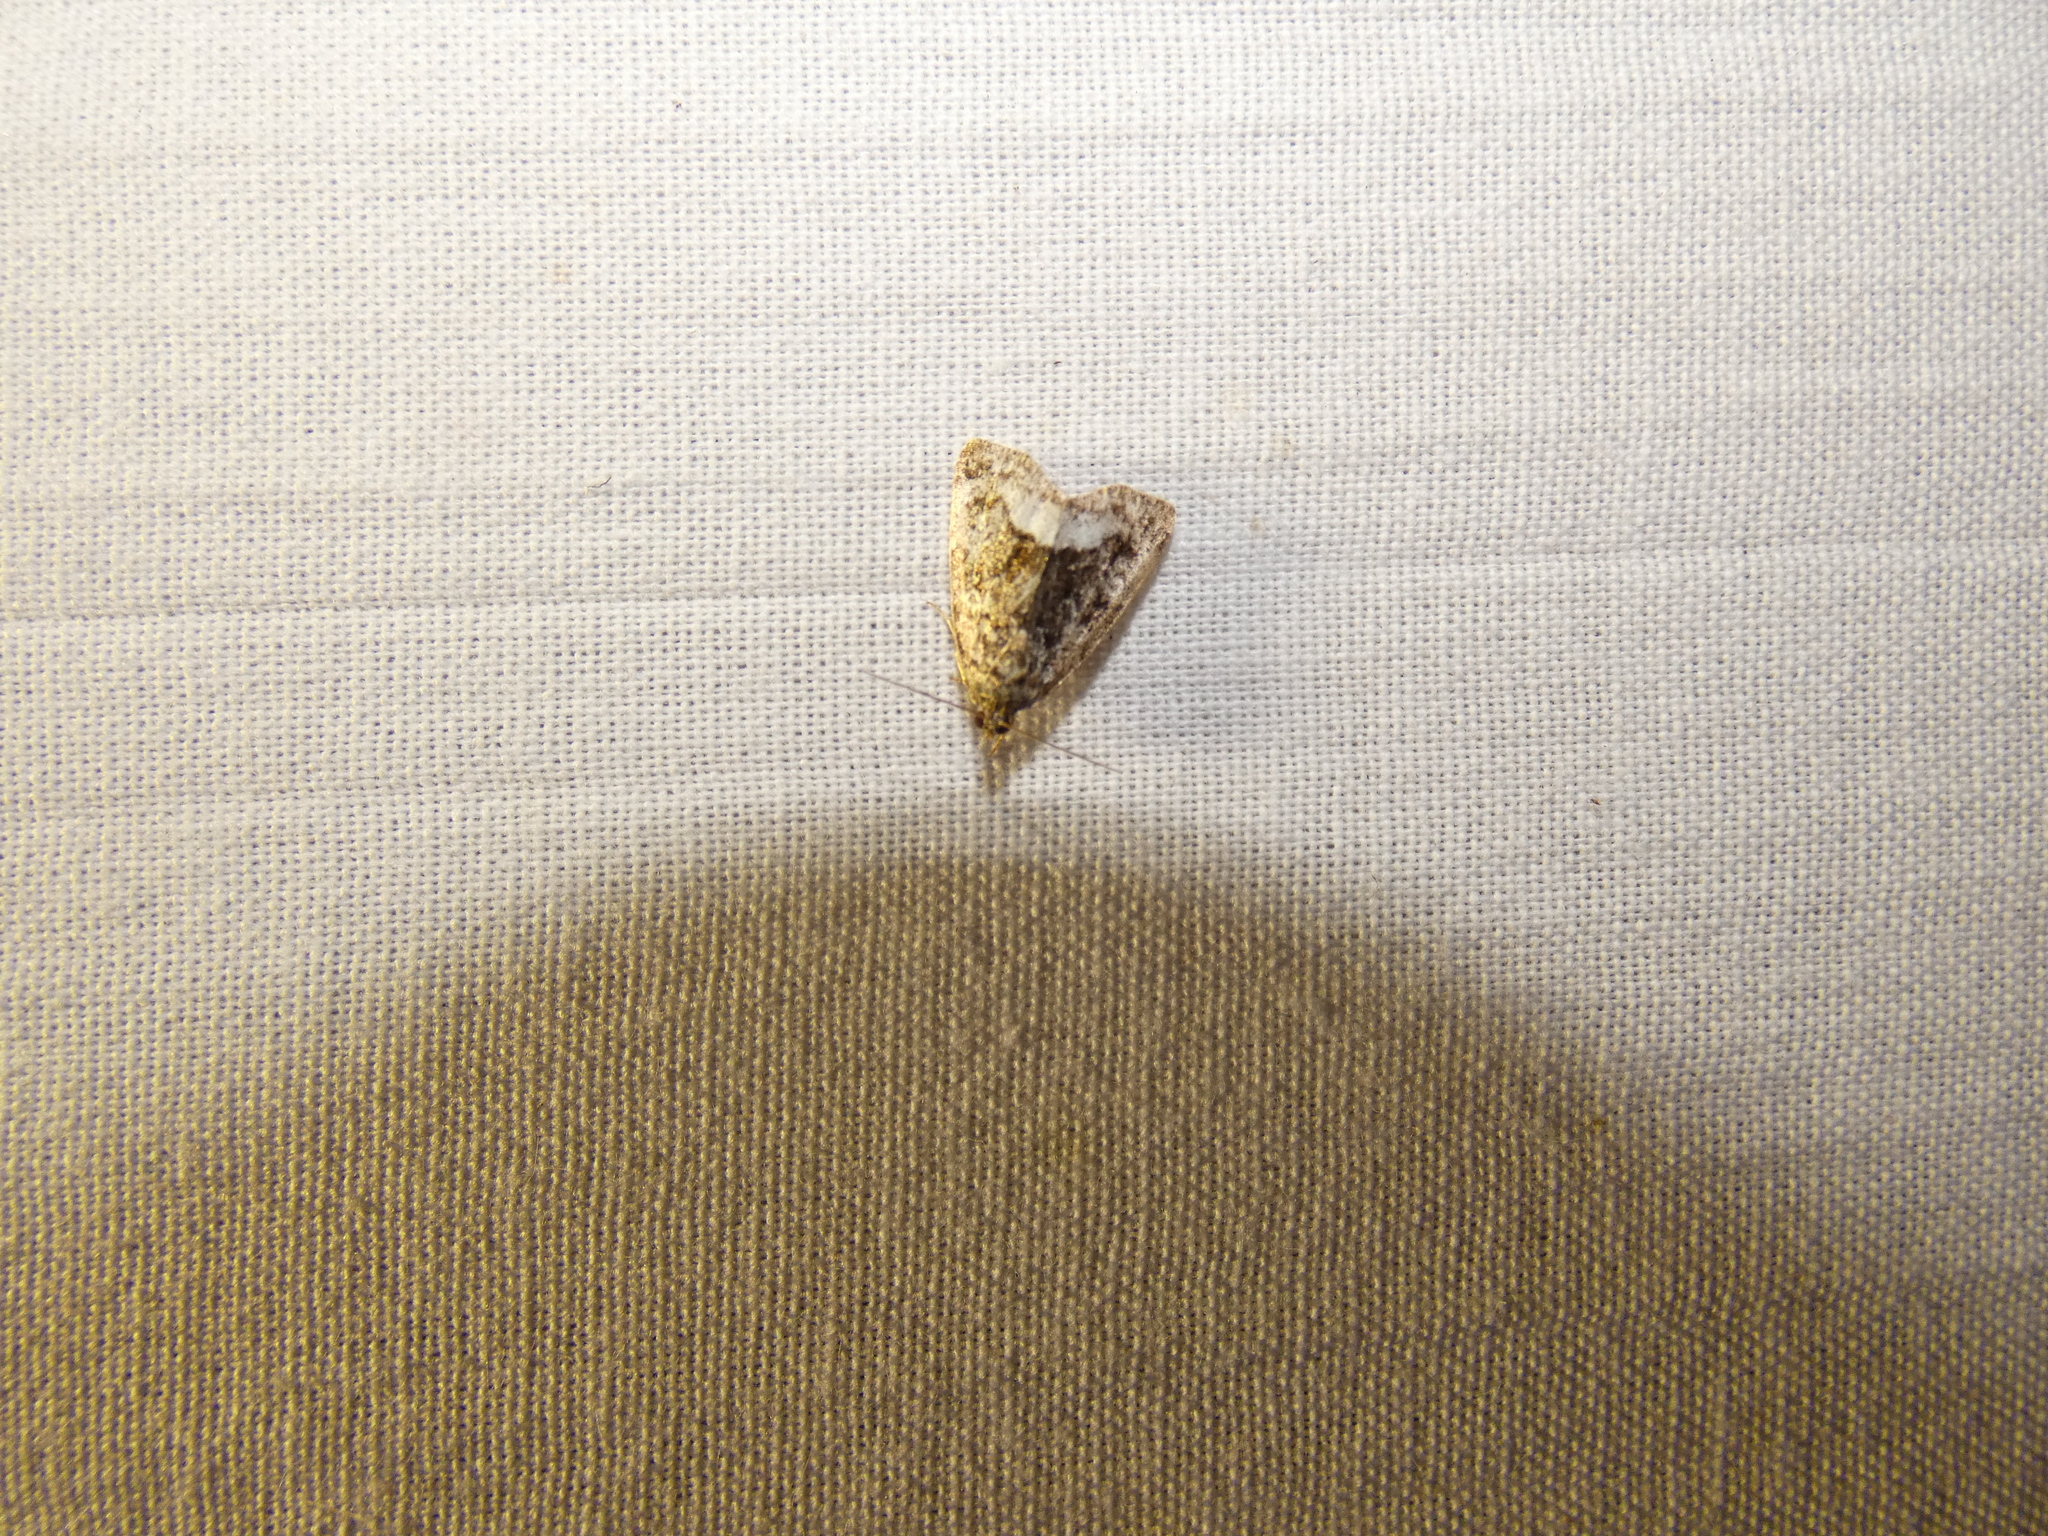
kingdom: Animalia
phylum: Arthropoda
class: Insecta
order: Lepidoptera
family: Noctuidae
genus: Deltote
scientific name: Deltote pygarga
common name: Marbled white spot
